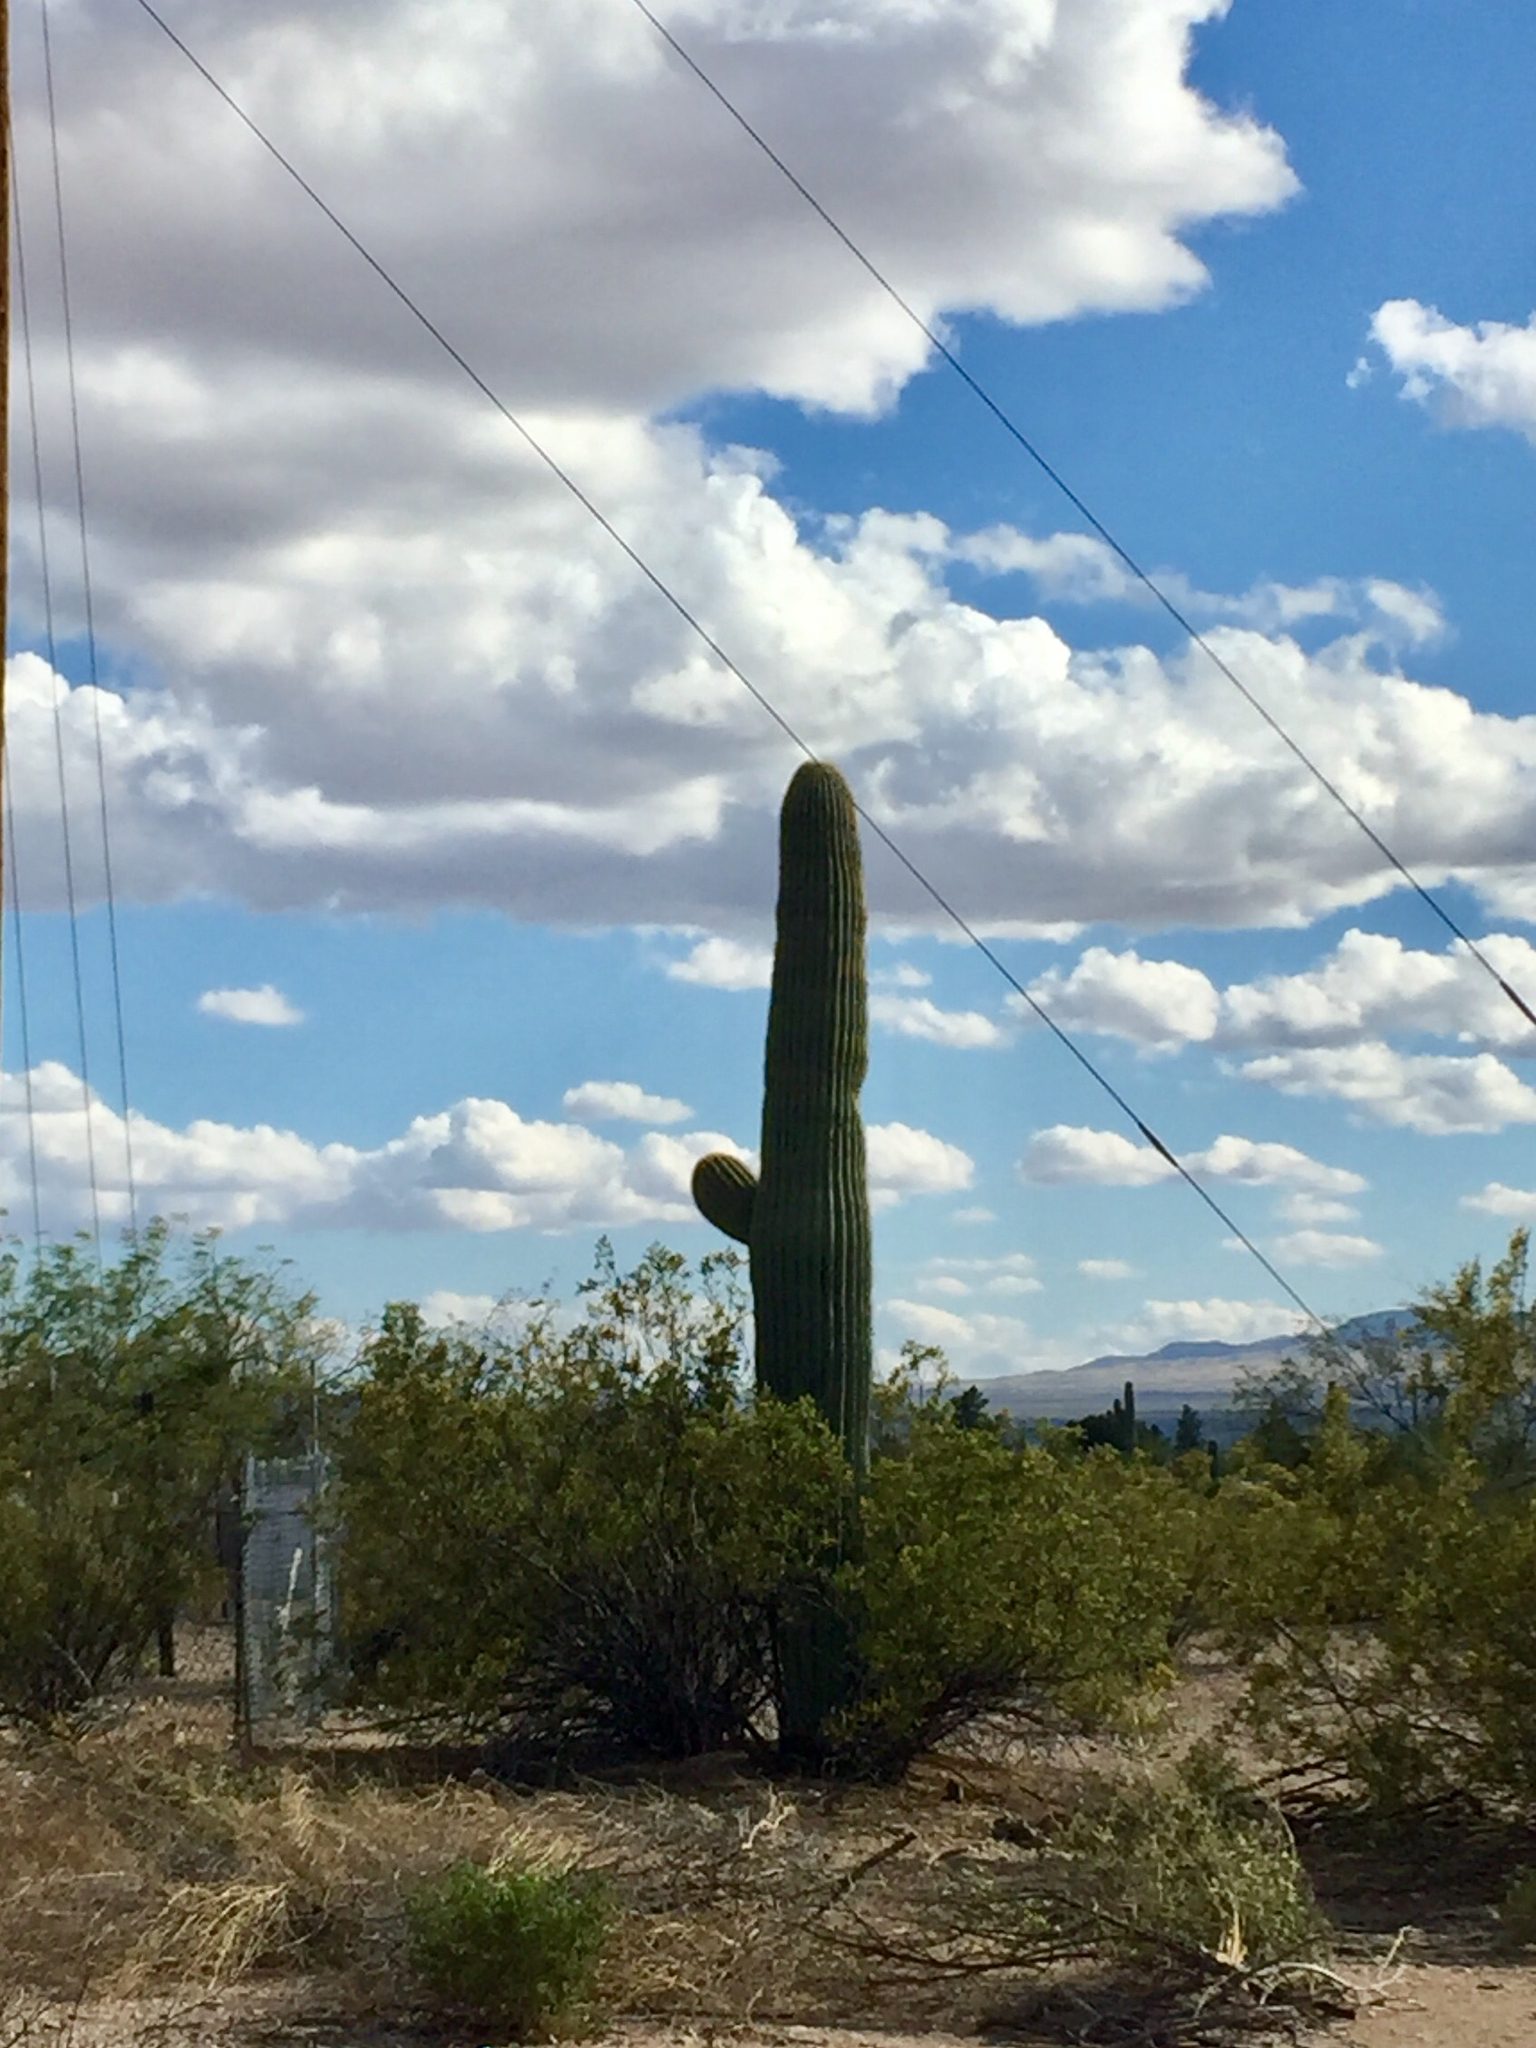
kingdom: Plantae
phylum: Tracheophyta
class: Magnoliopsida
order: Caryophyllales
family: Cactaceae
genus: Carnegiea
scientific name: Carnegiea gigantea
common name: Saguaro
